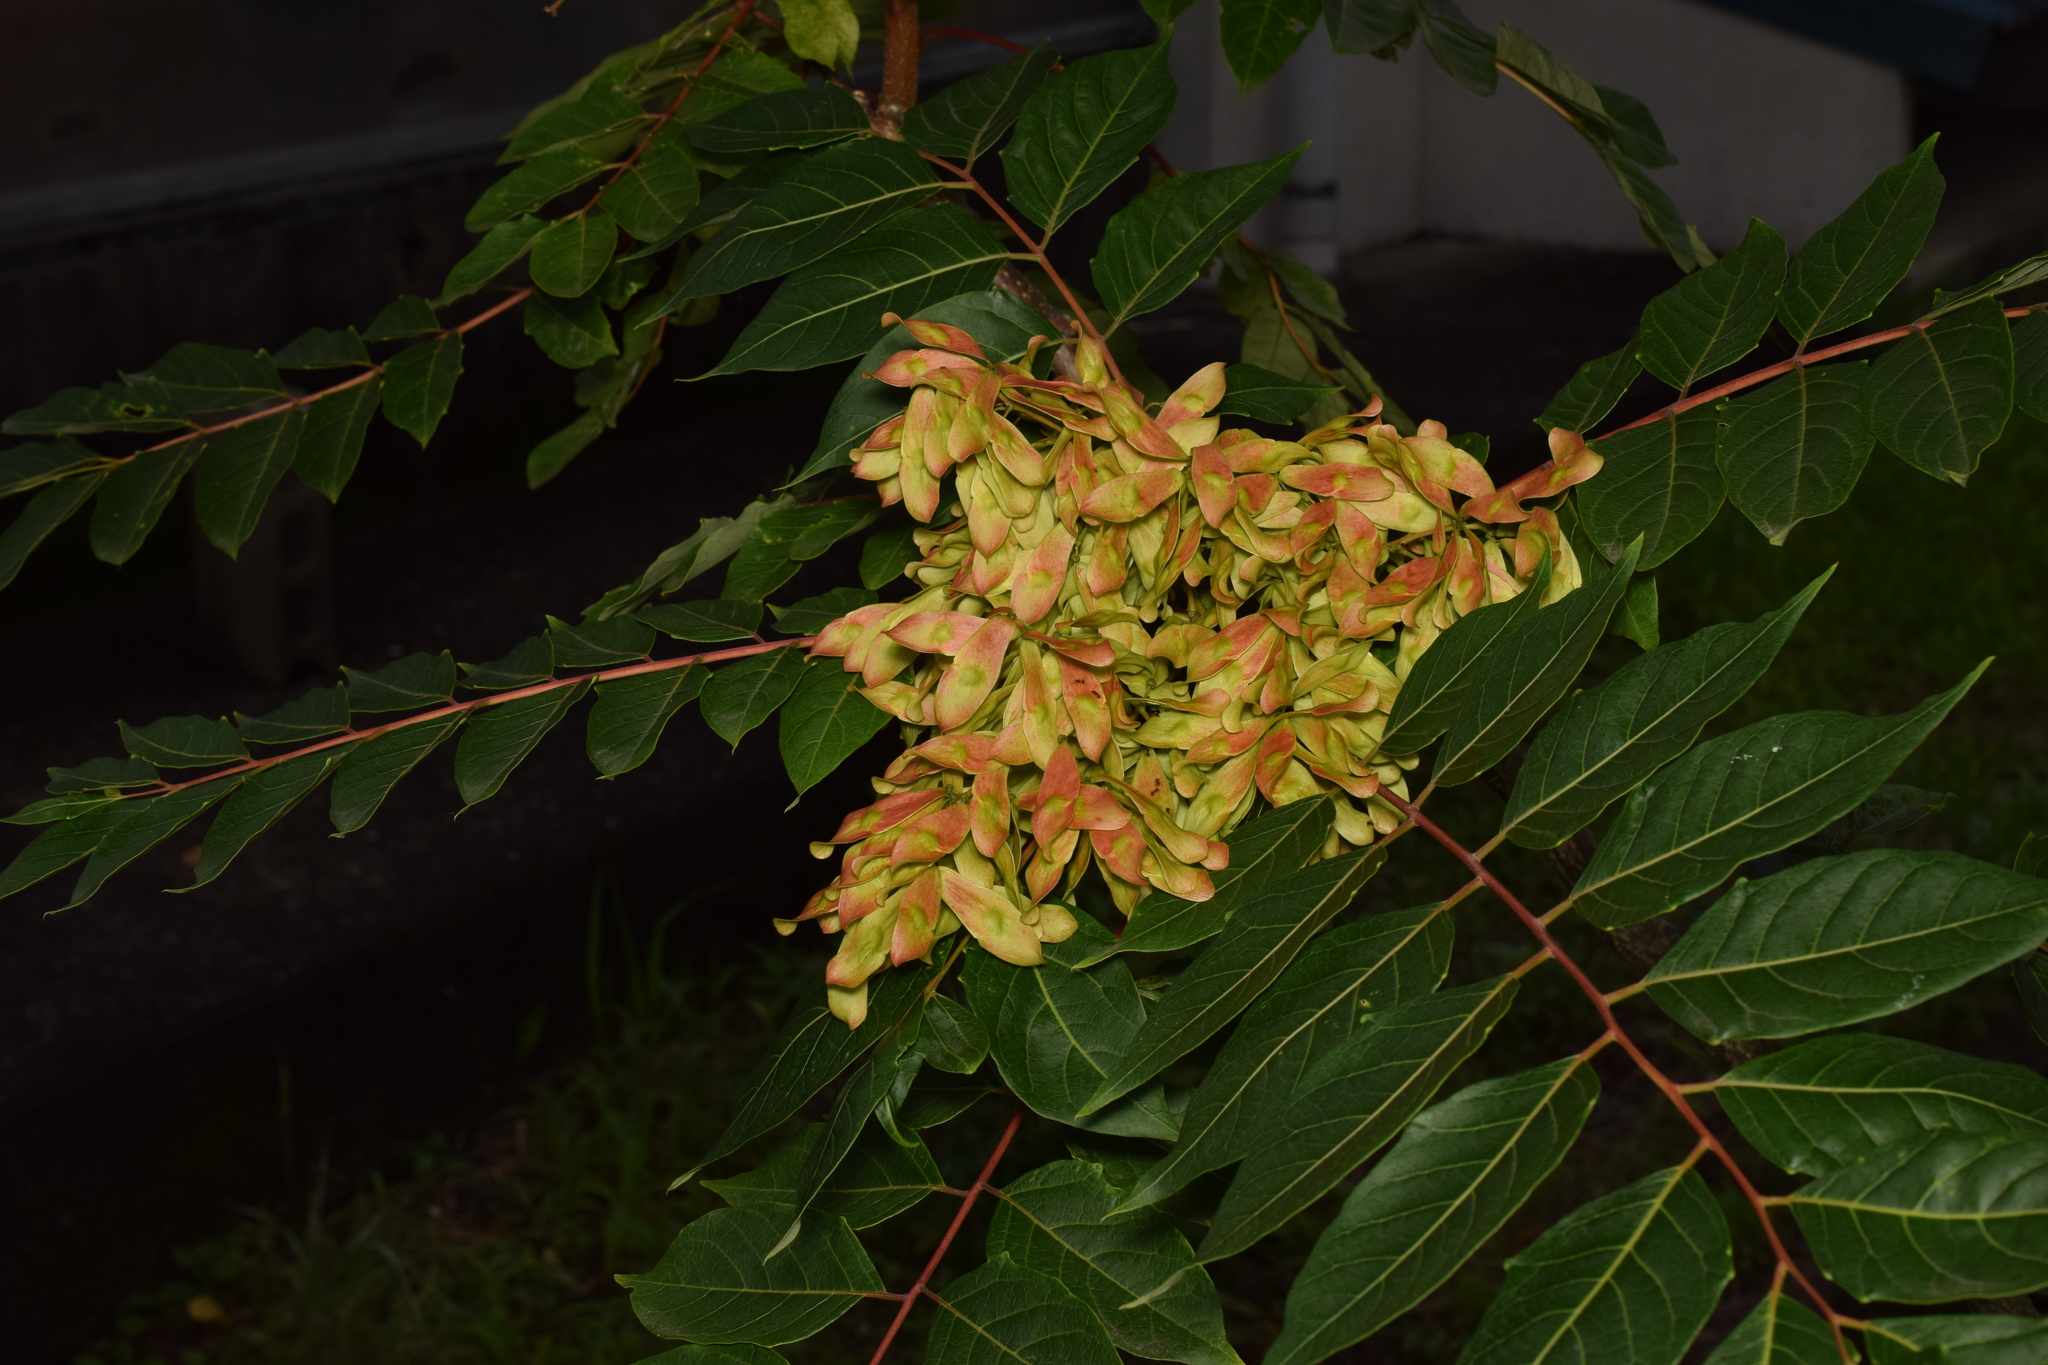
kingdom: Plantae
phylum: Tracheophyta
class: Magnoliopsida
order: Sapindales
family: Simaroubaceae
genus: Ailanthus
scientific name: Ailanthus altissima
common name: Tree-of-heaven
